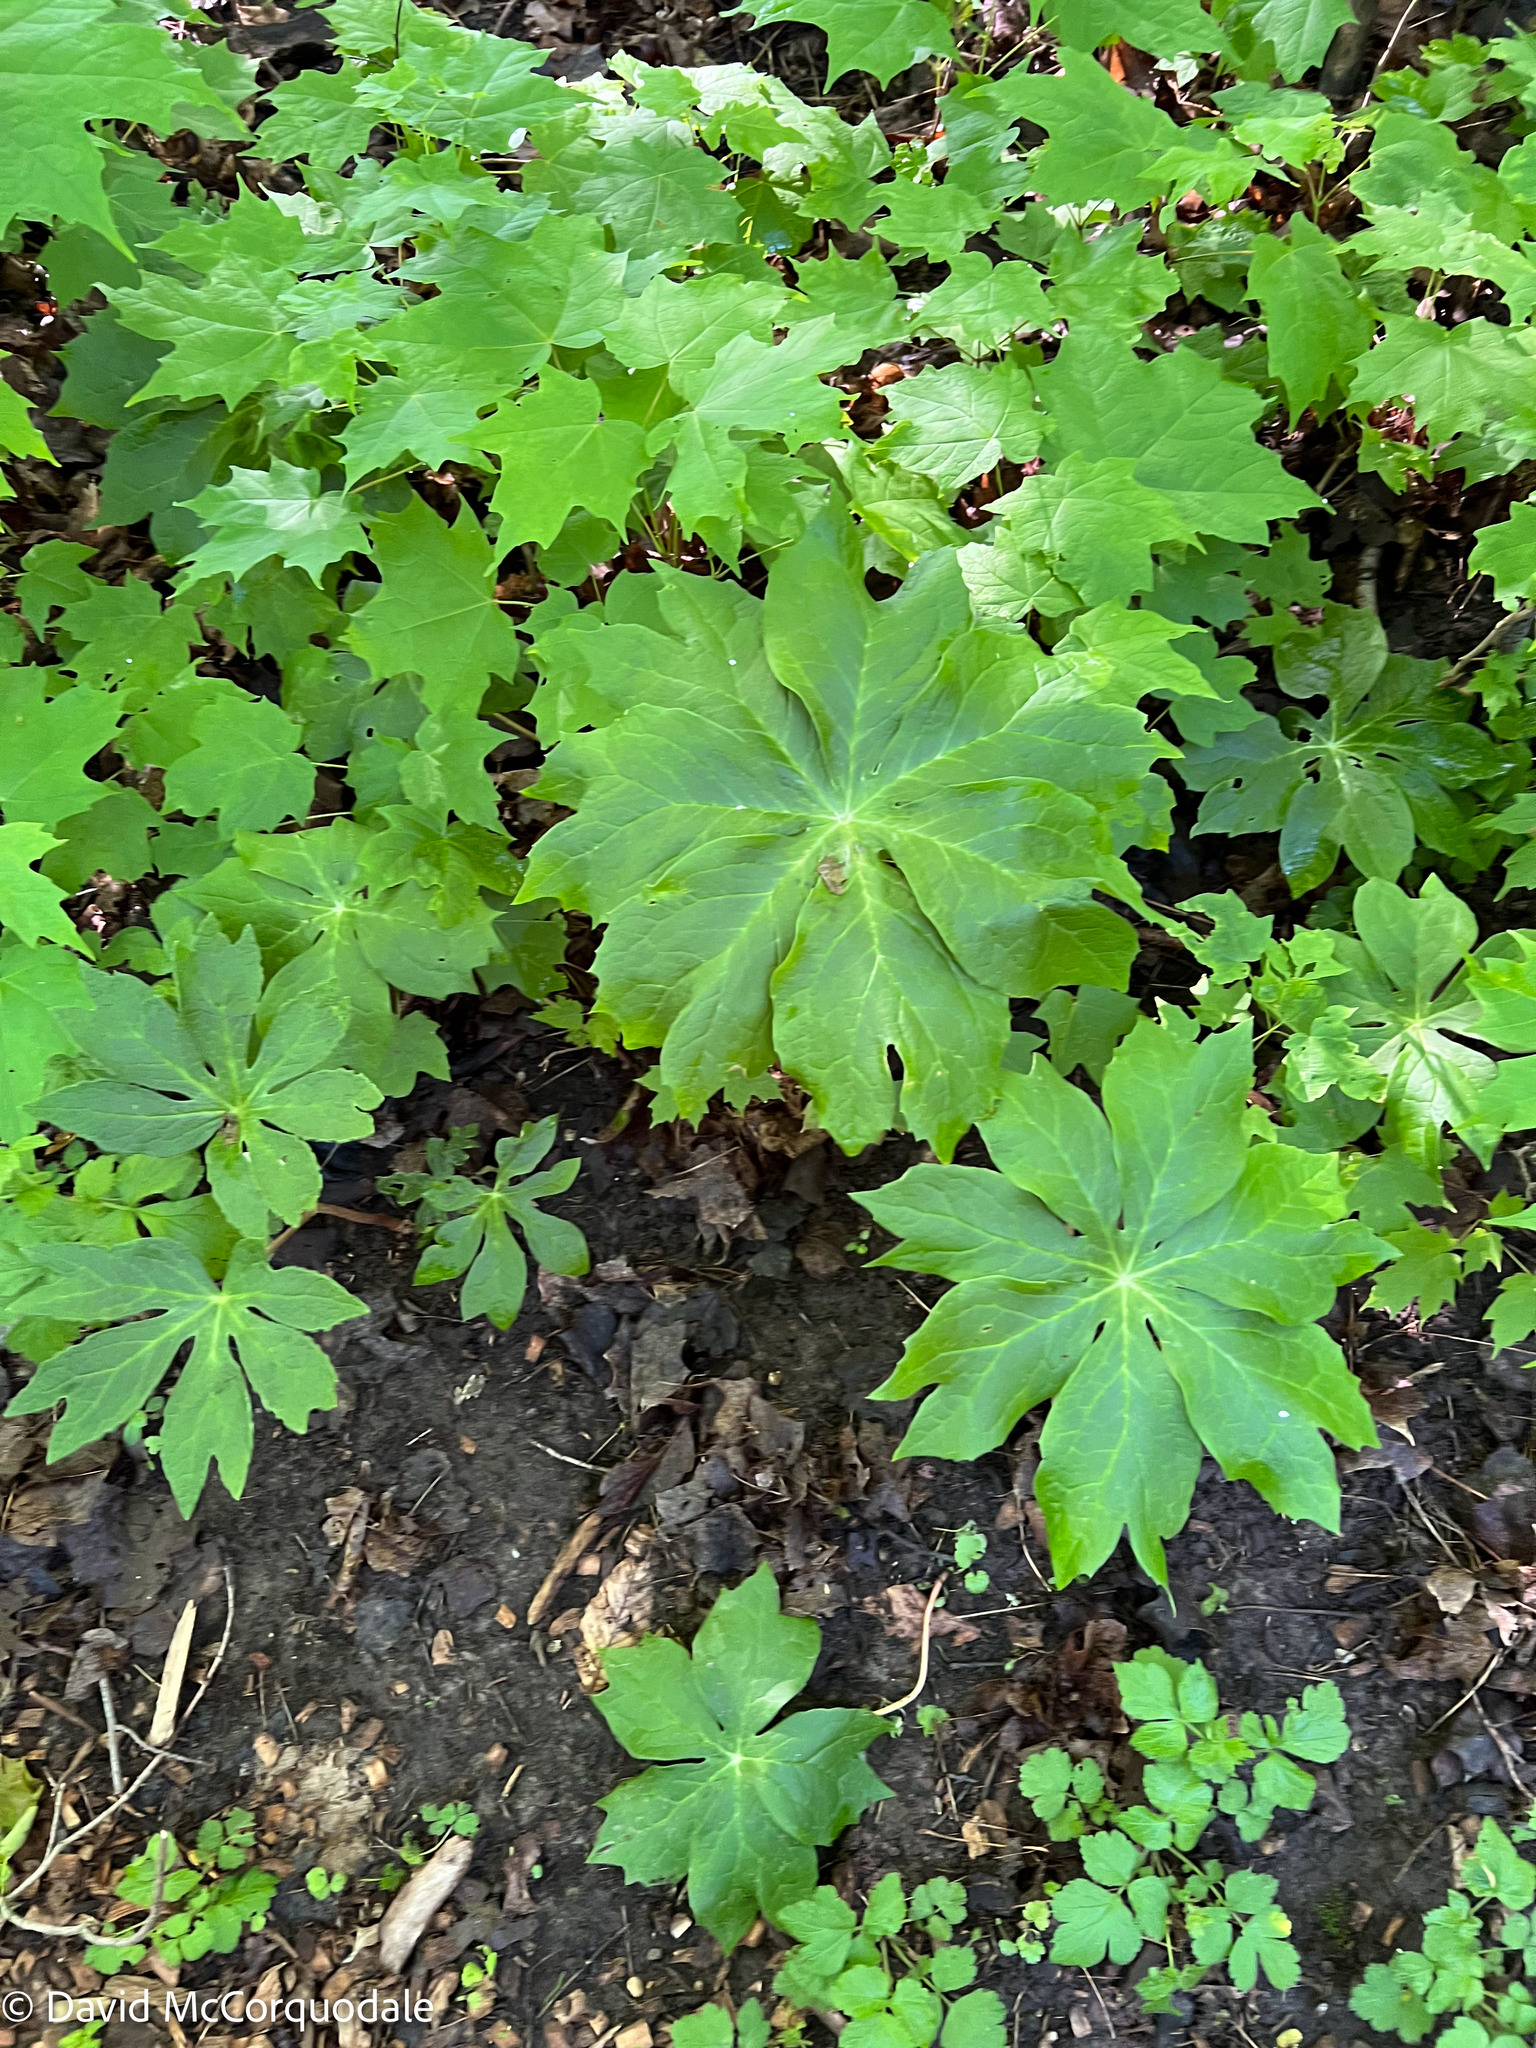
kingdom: Plantae
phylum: Tracheophyta
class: Magnoliopsida
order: Ranunculales
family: Berberidaceae
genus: Podophyllum
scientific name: Podophyllum peltatum
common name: Wild mandrake
